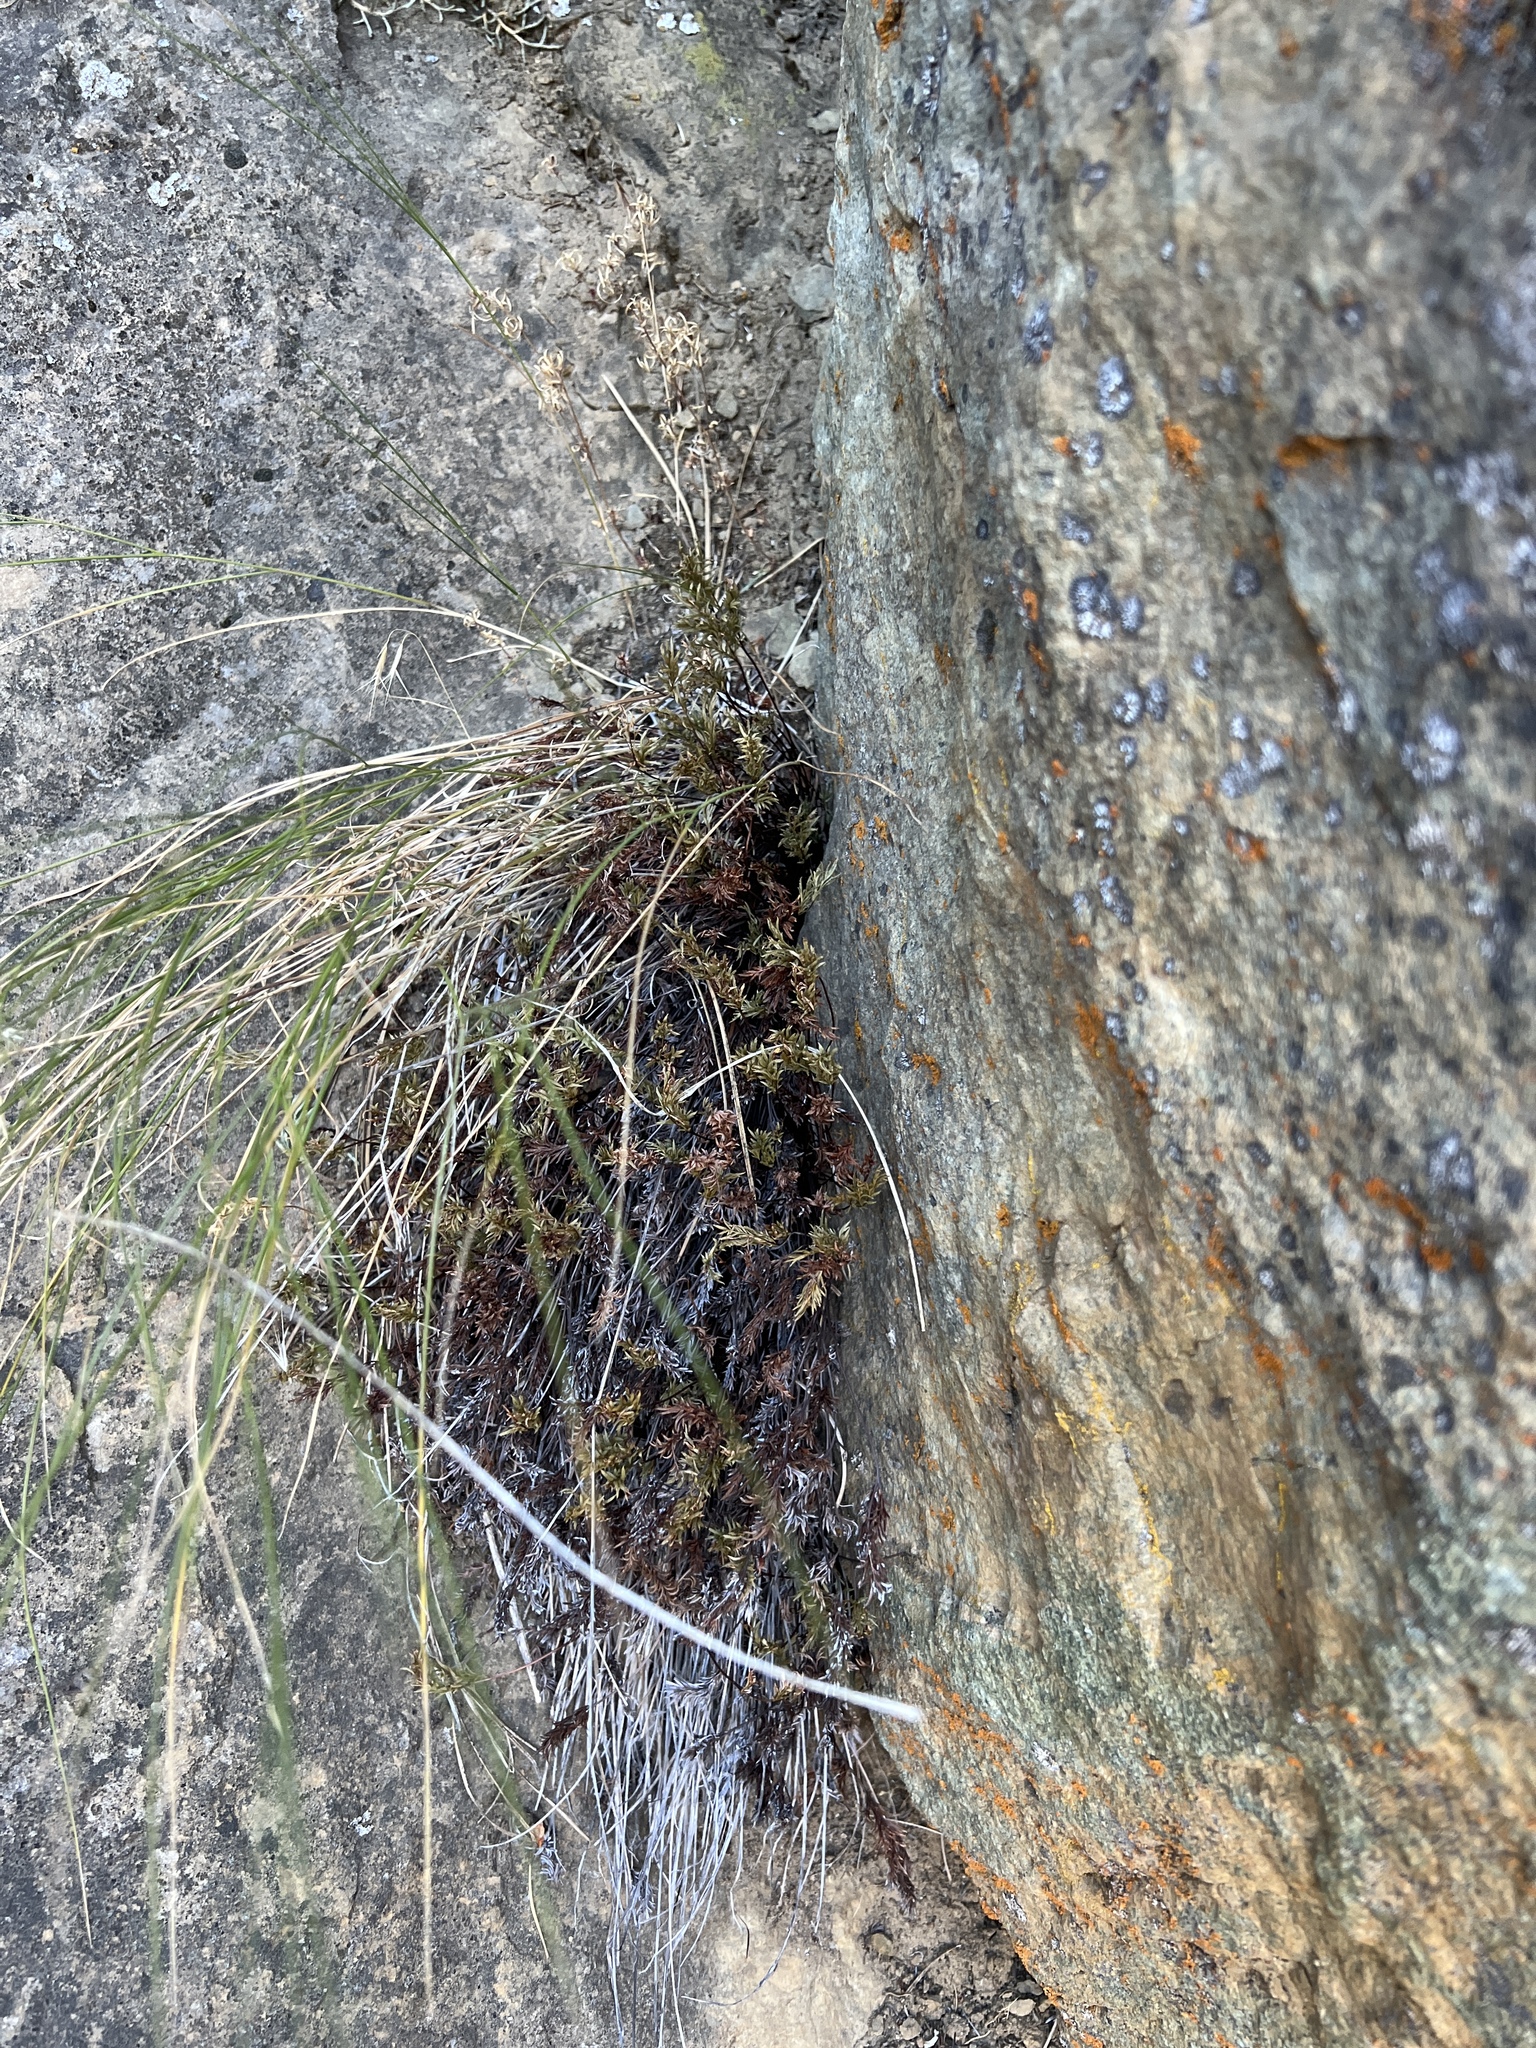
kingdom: Plantae
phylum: Tracheophyta
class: Polypodiopsida
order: Polypodiales
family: Pteridaceae
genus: Aspidotis
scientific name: Aspidotis densa
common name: Indian's dream
